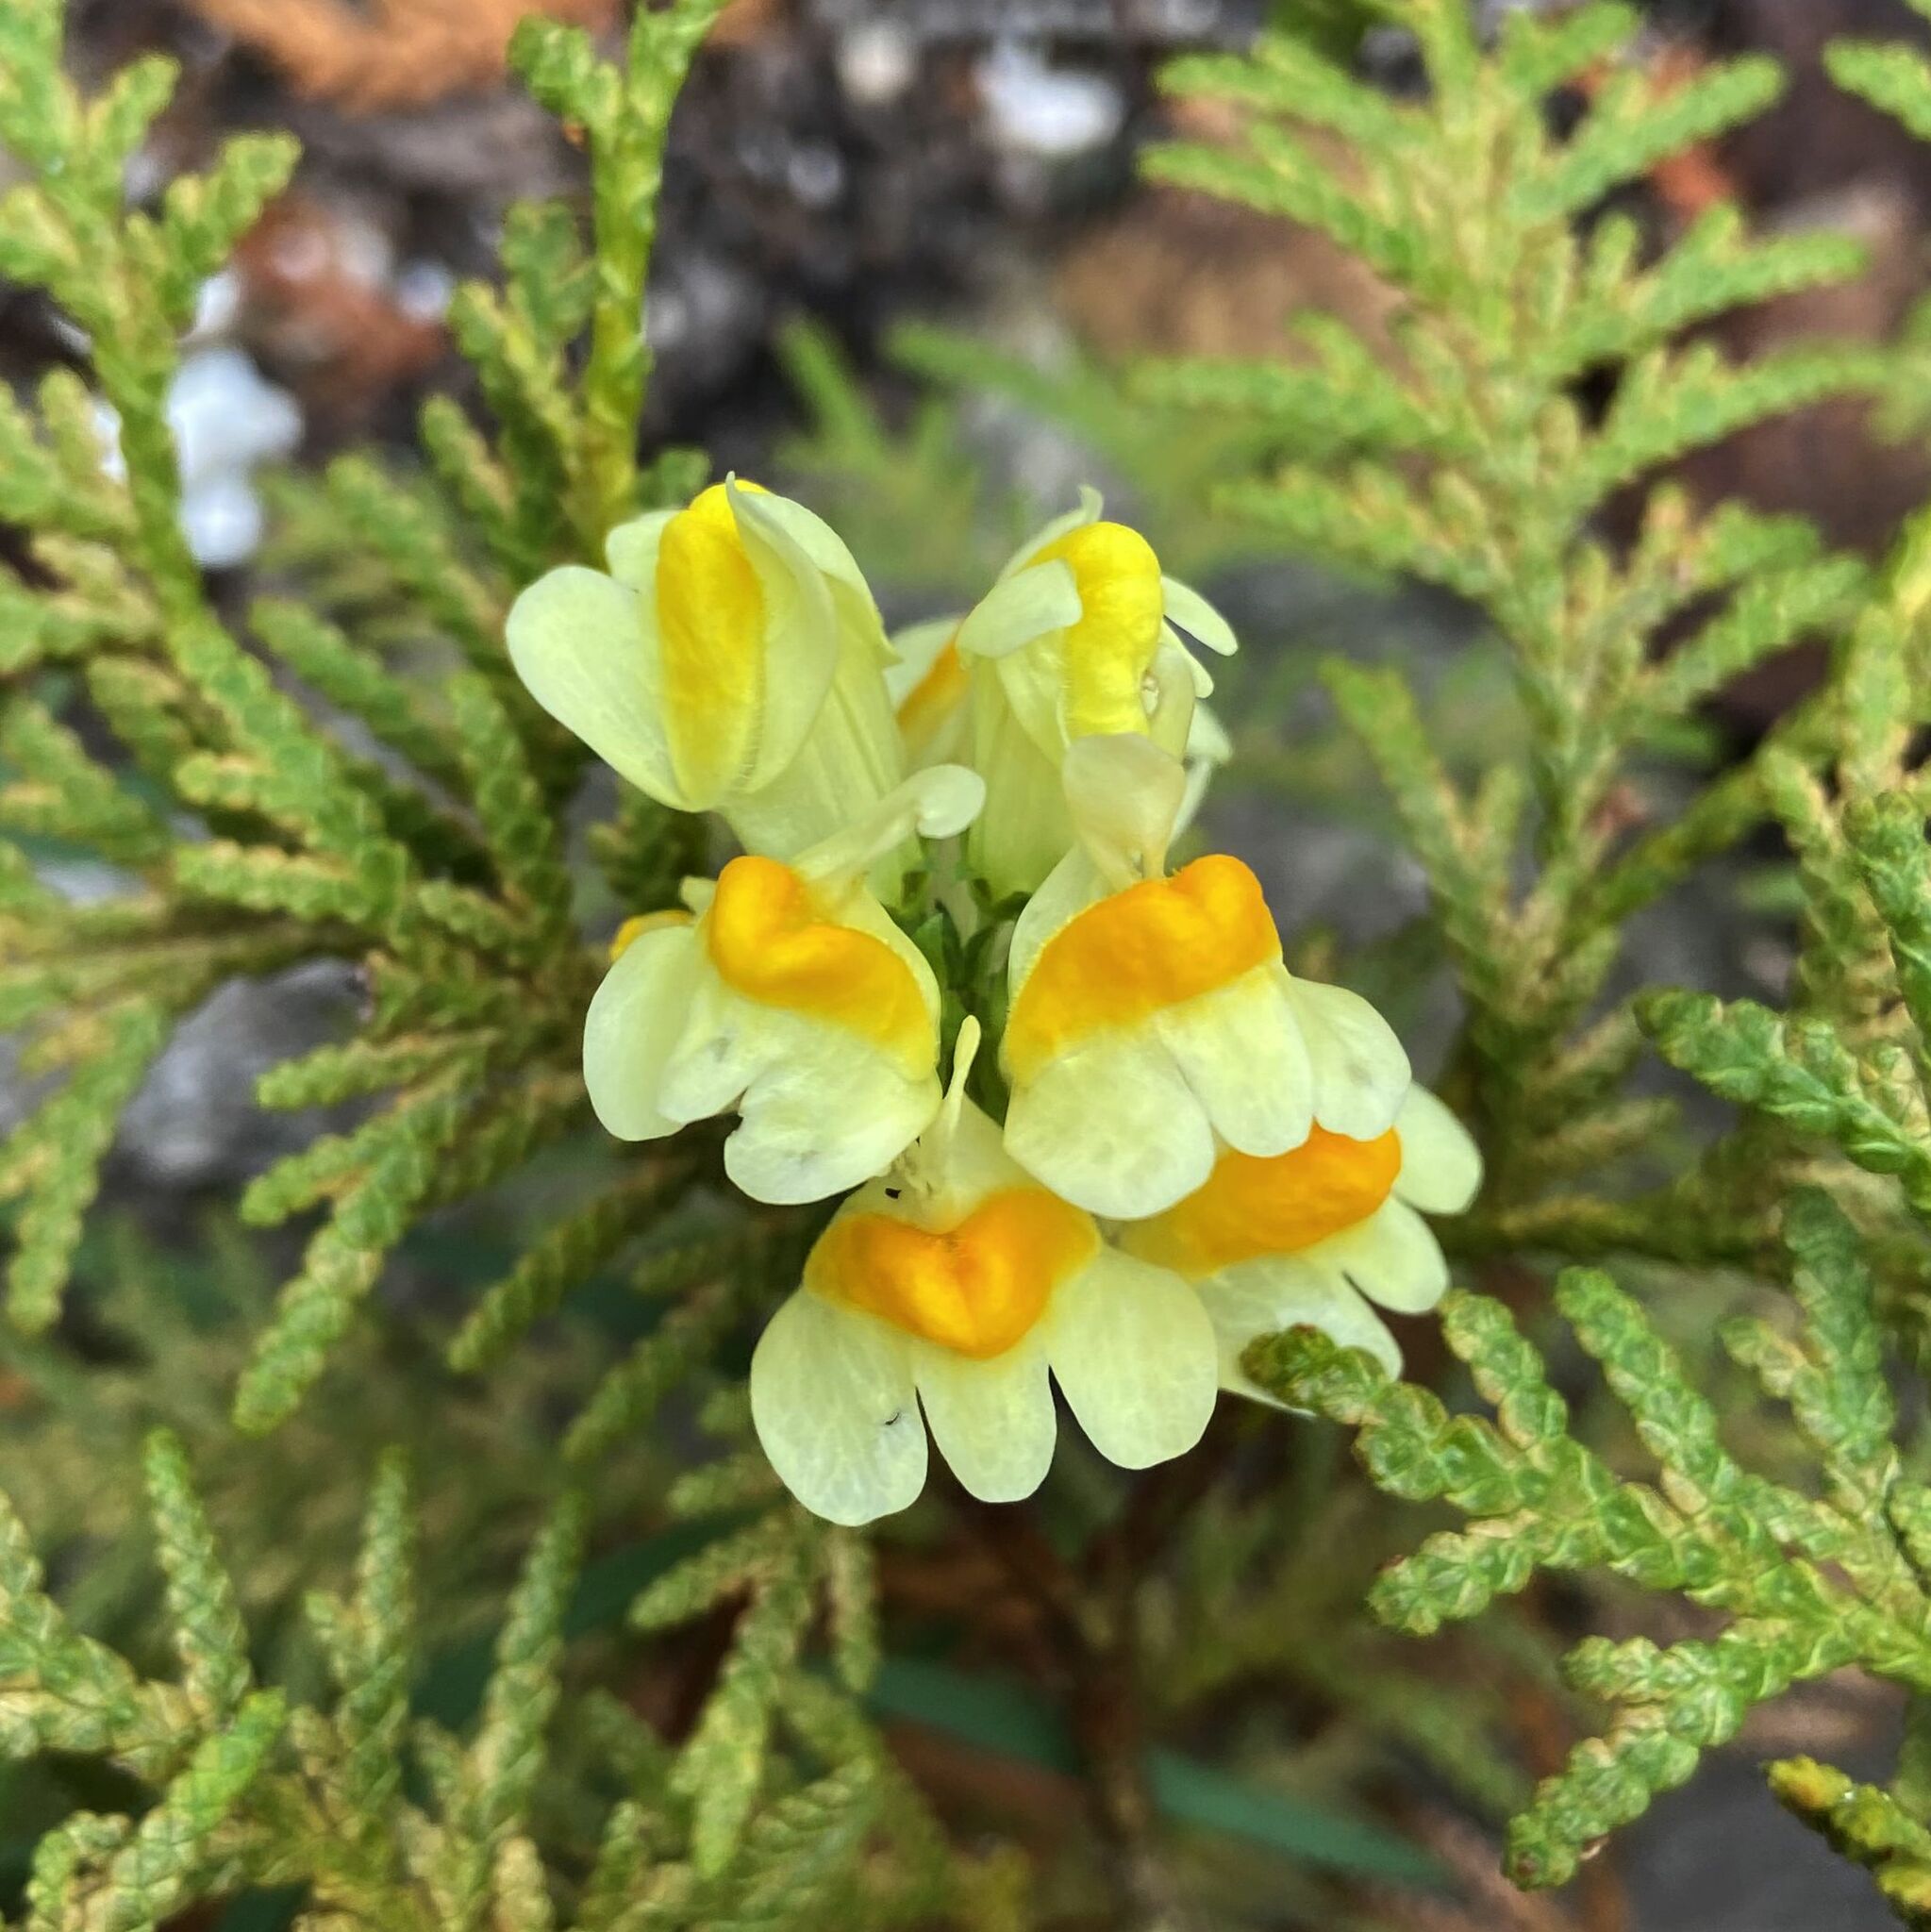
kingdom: Plantae
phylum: Tracheophyta
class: Magnoliopsida
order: Lamiales
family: Plantaginaceae
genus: Linaria
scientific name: Linaria vulgaris
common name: Butter and eggs
